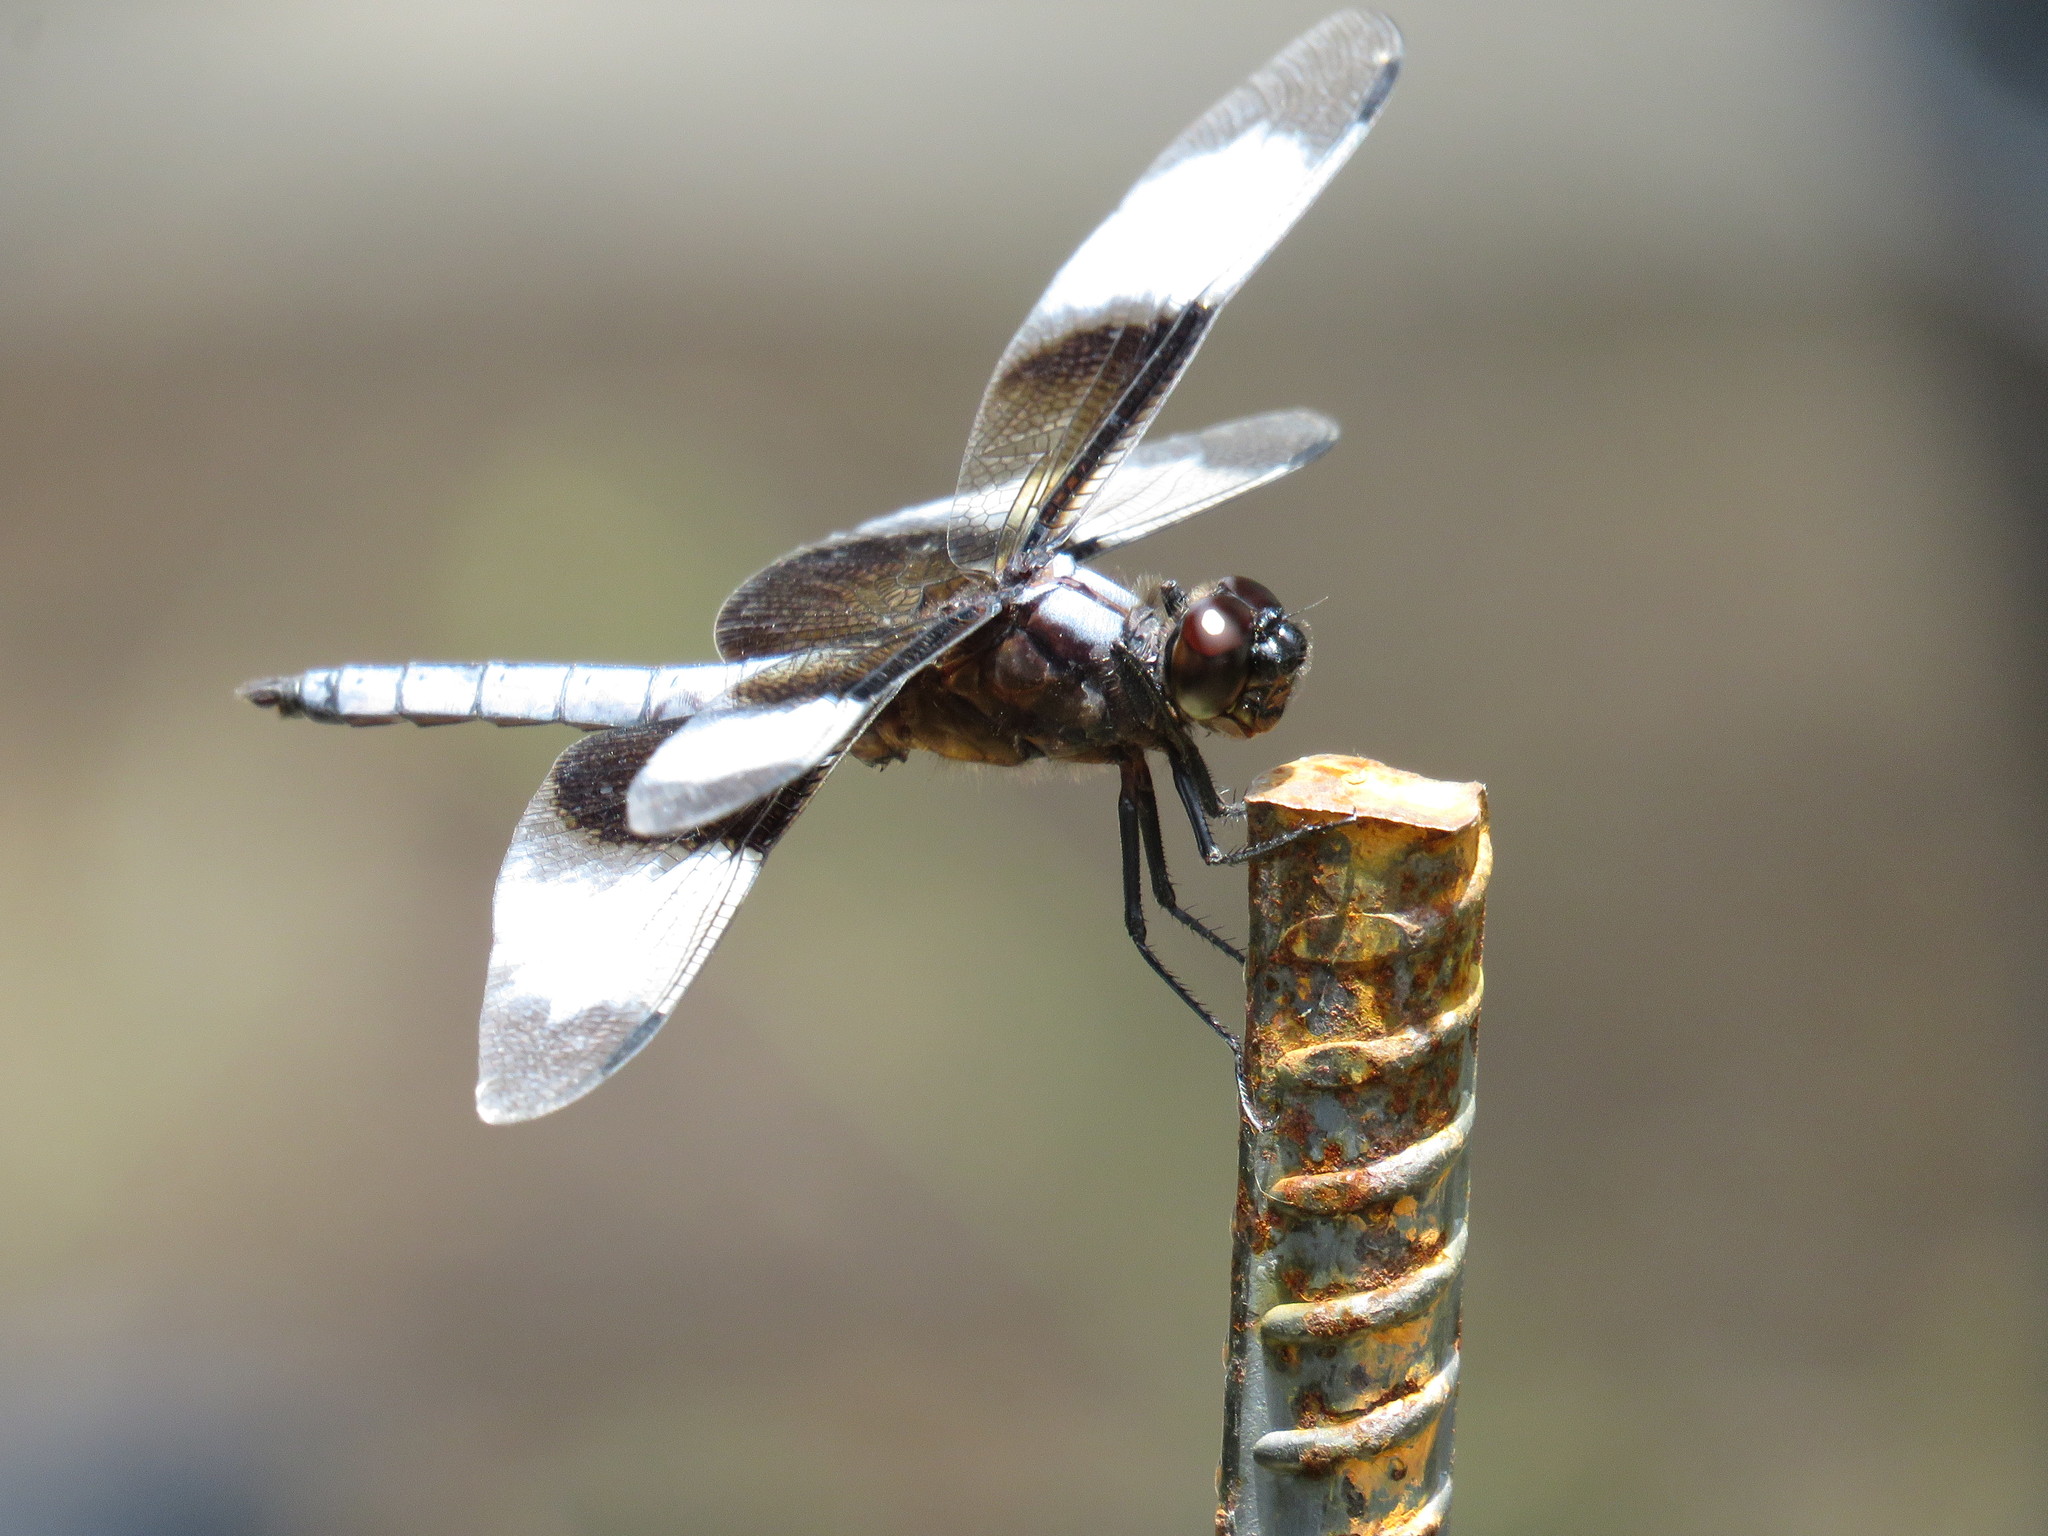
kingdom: Animalia
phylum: Arthropoda
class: Insecta
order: Odonata
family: Libellulidae
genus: Libellula
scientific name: Libellula luctuosa
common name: Widow skimmer
